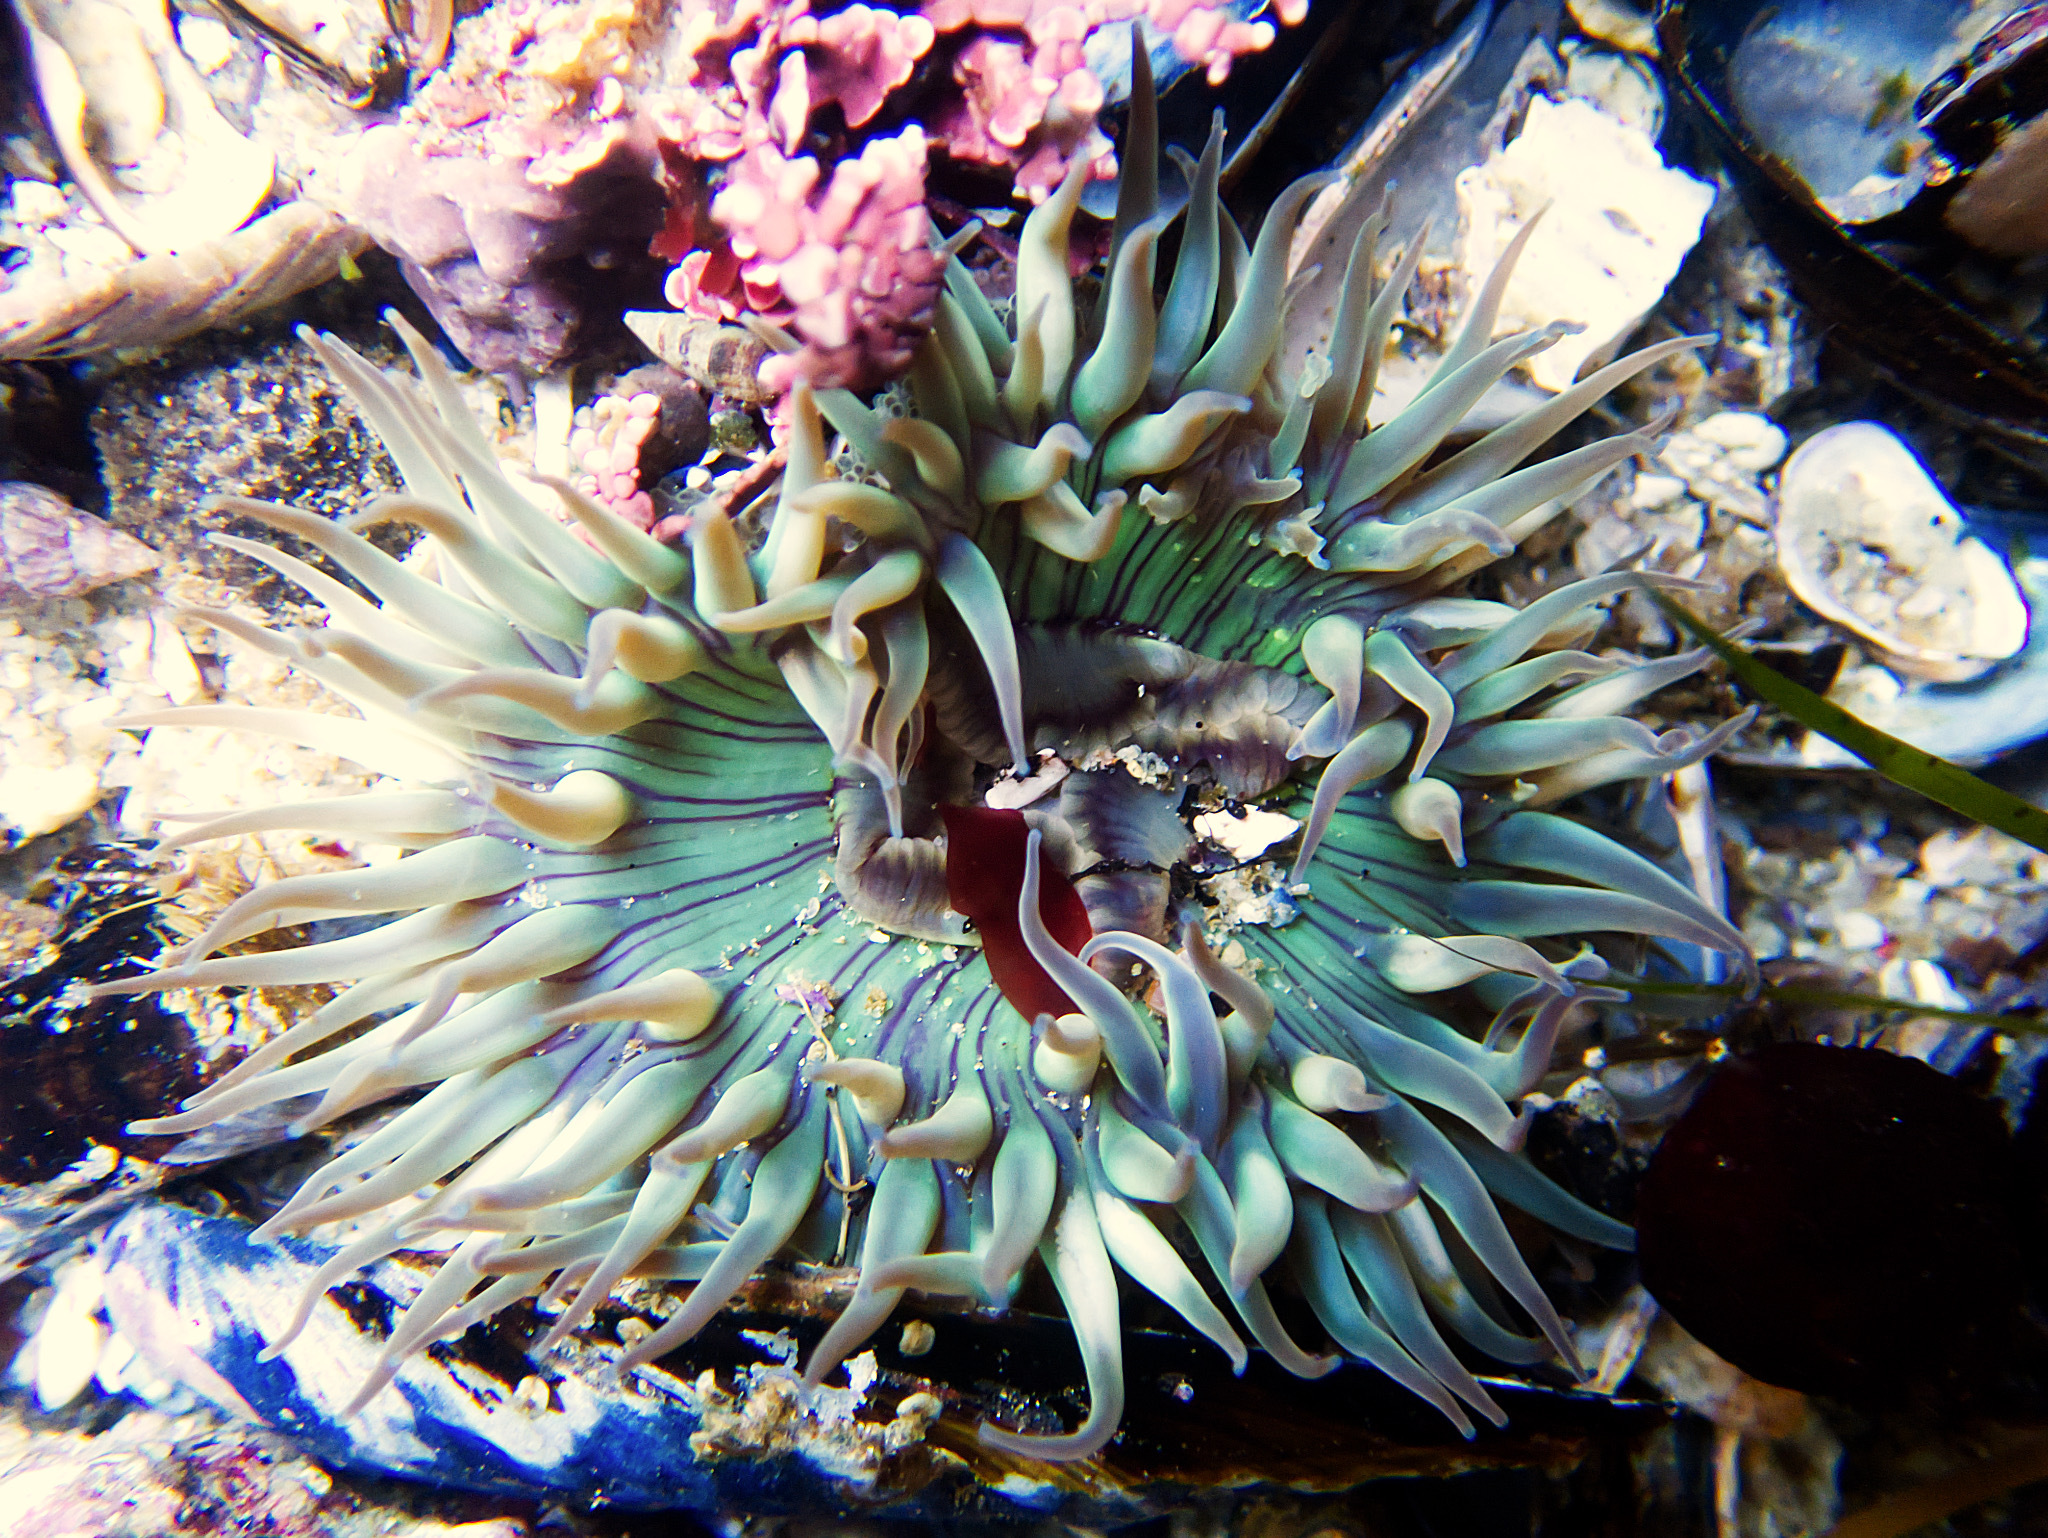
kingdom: Animalia
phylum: Cnidaria
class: Anthozoa
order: Actiniaria
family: Actiniidae
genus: Anthopleura
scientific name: Anthopleura sola
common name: Sun anemone
